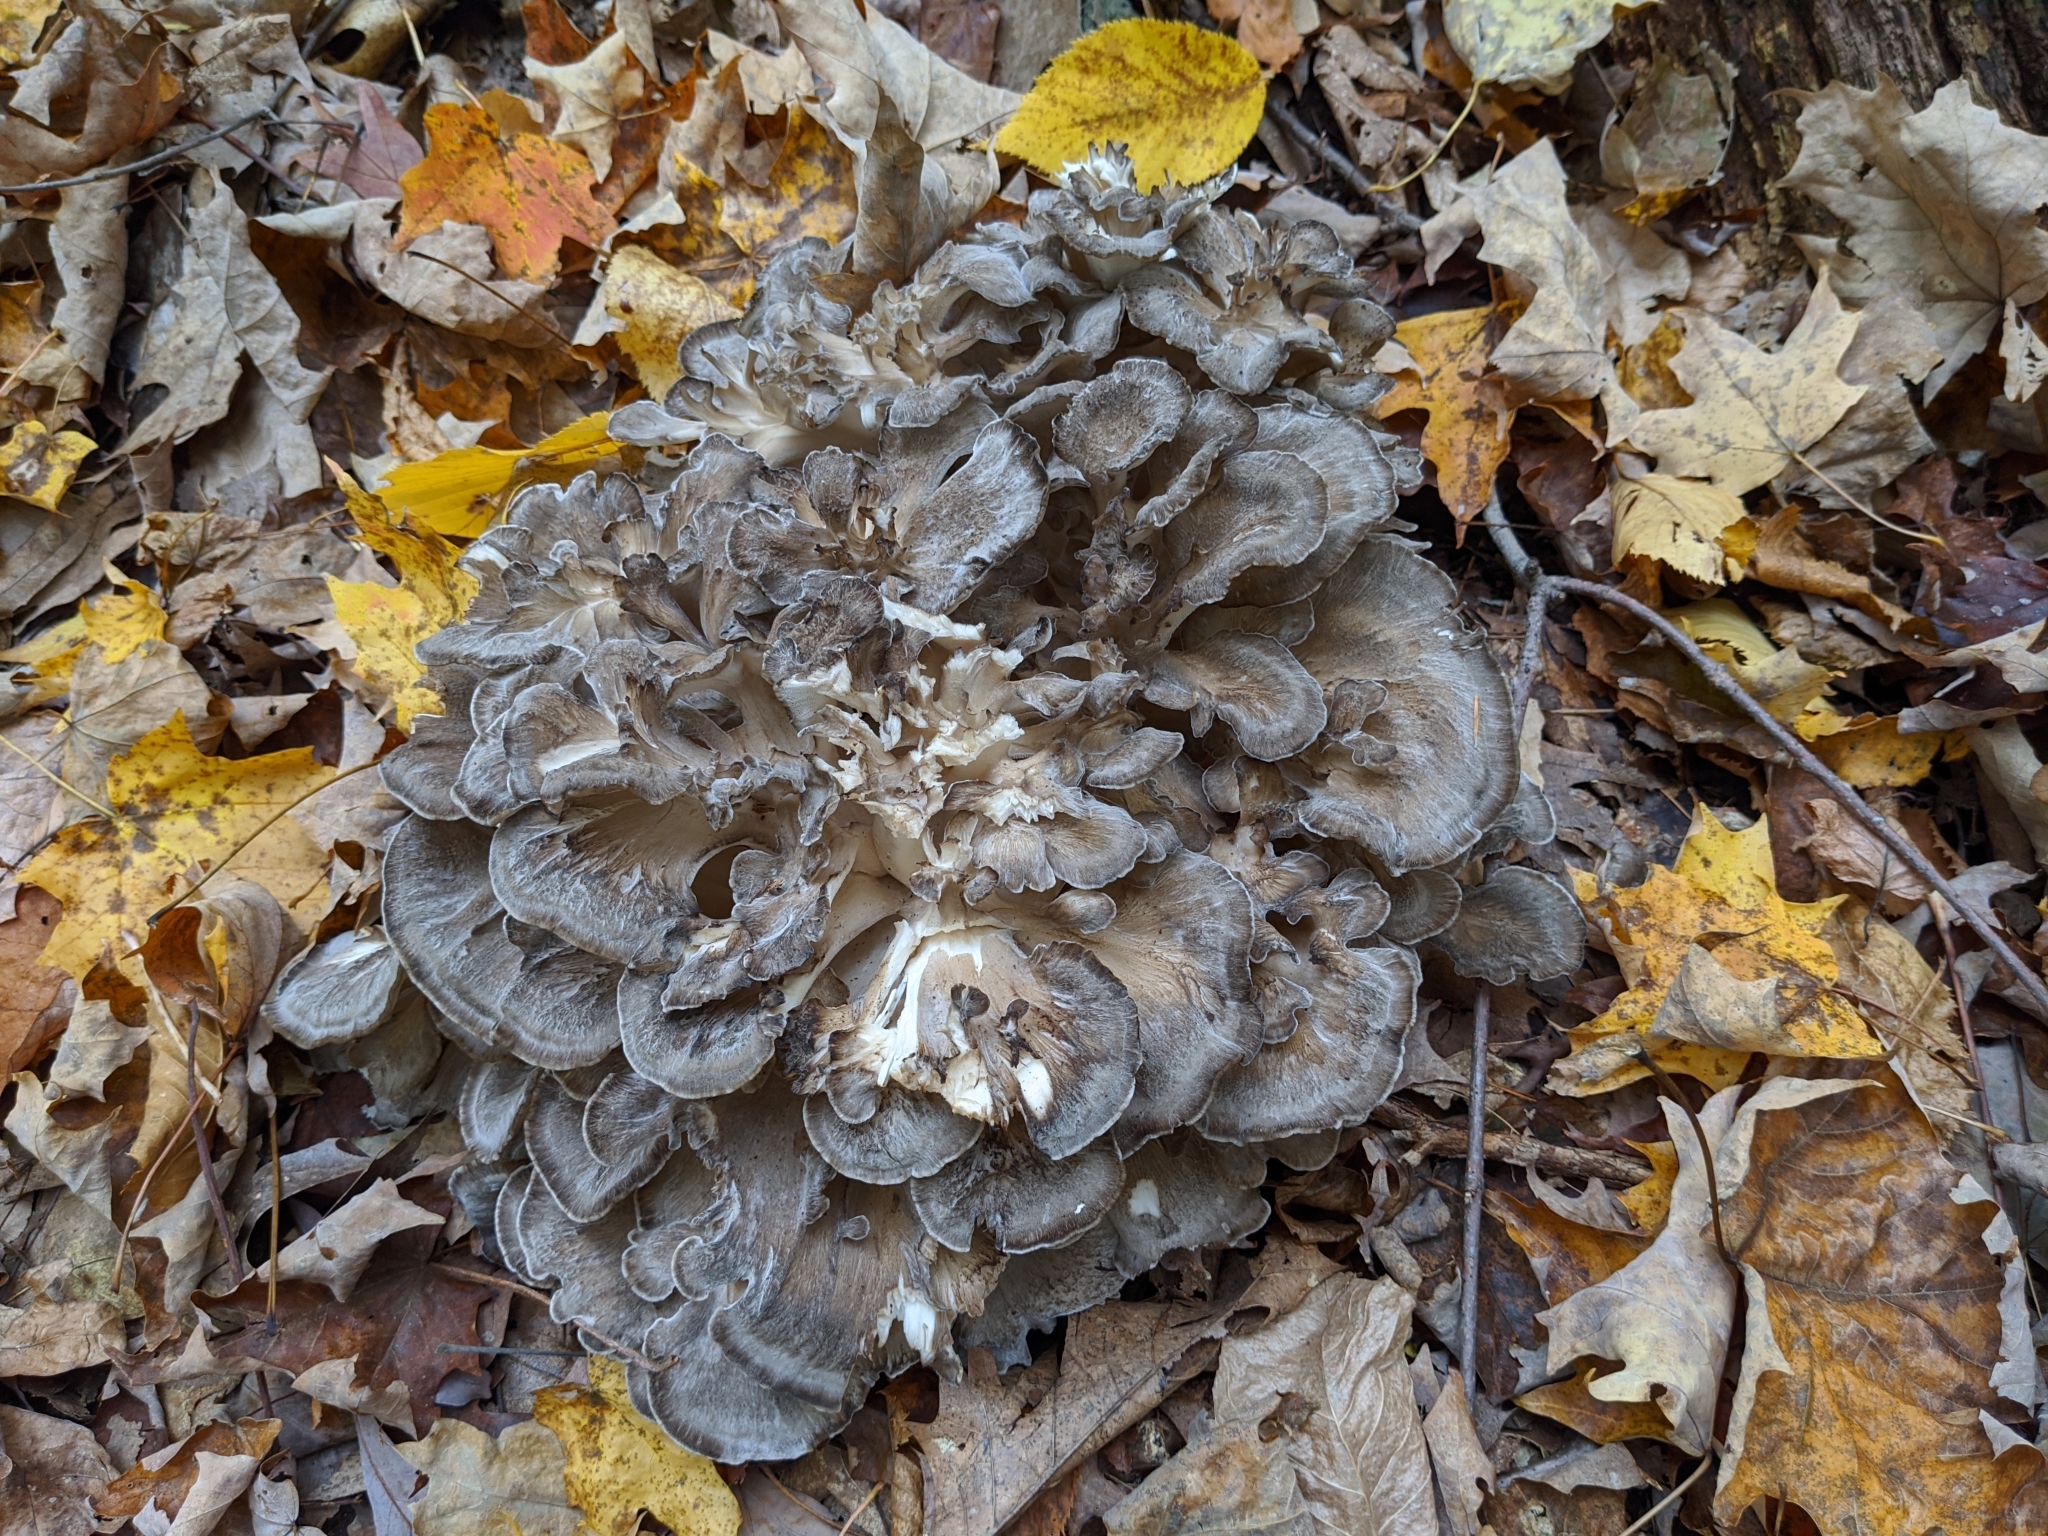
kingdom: Fungi
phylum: Basidiomycota
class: Agaricomycetes
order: Polyporales
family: Grifolaceae
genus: Grifola
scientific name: Grifola frondosa
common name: Hen of the woods
